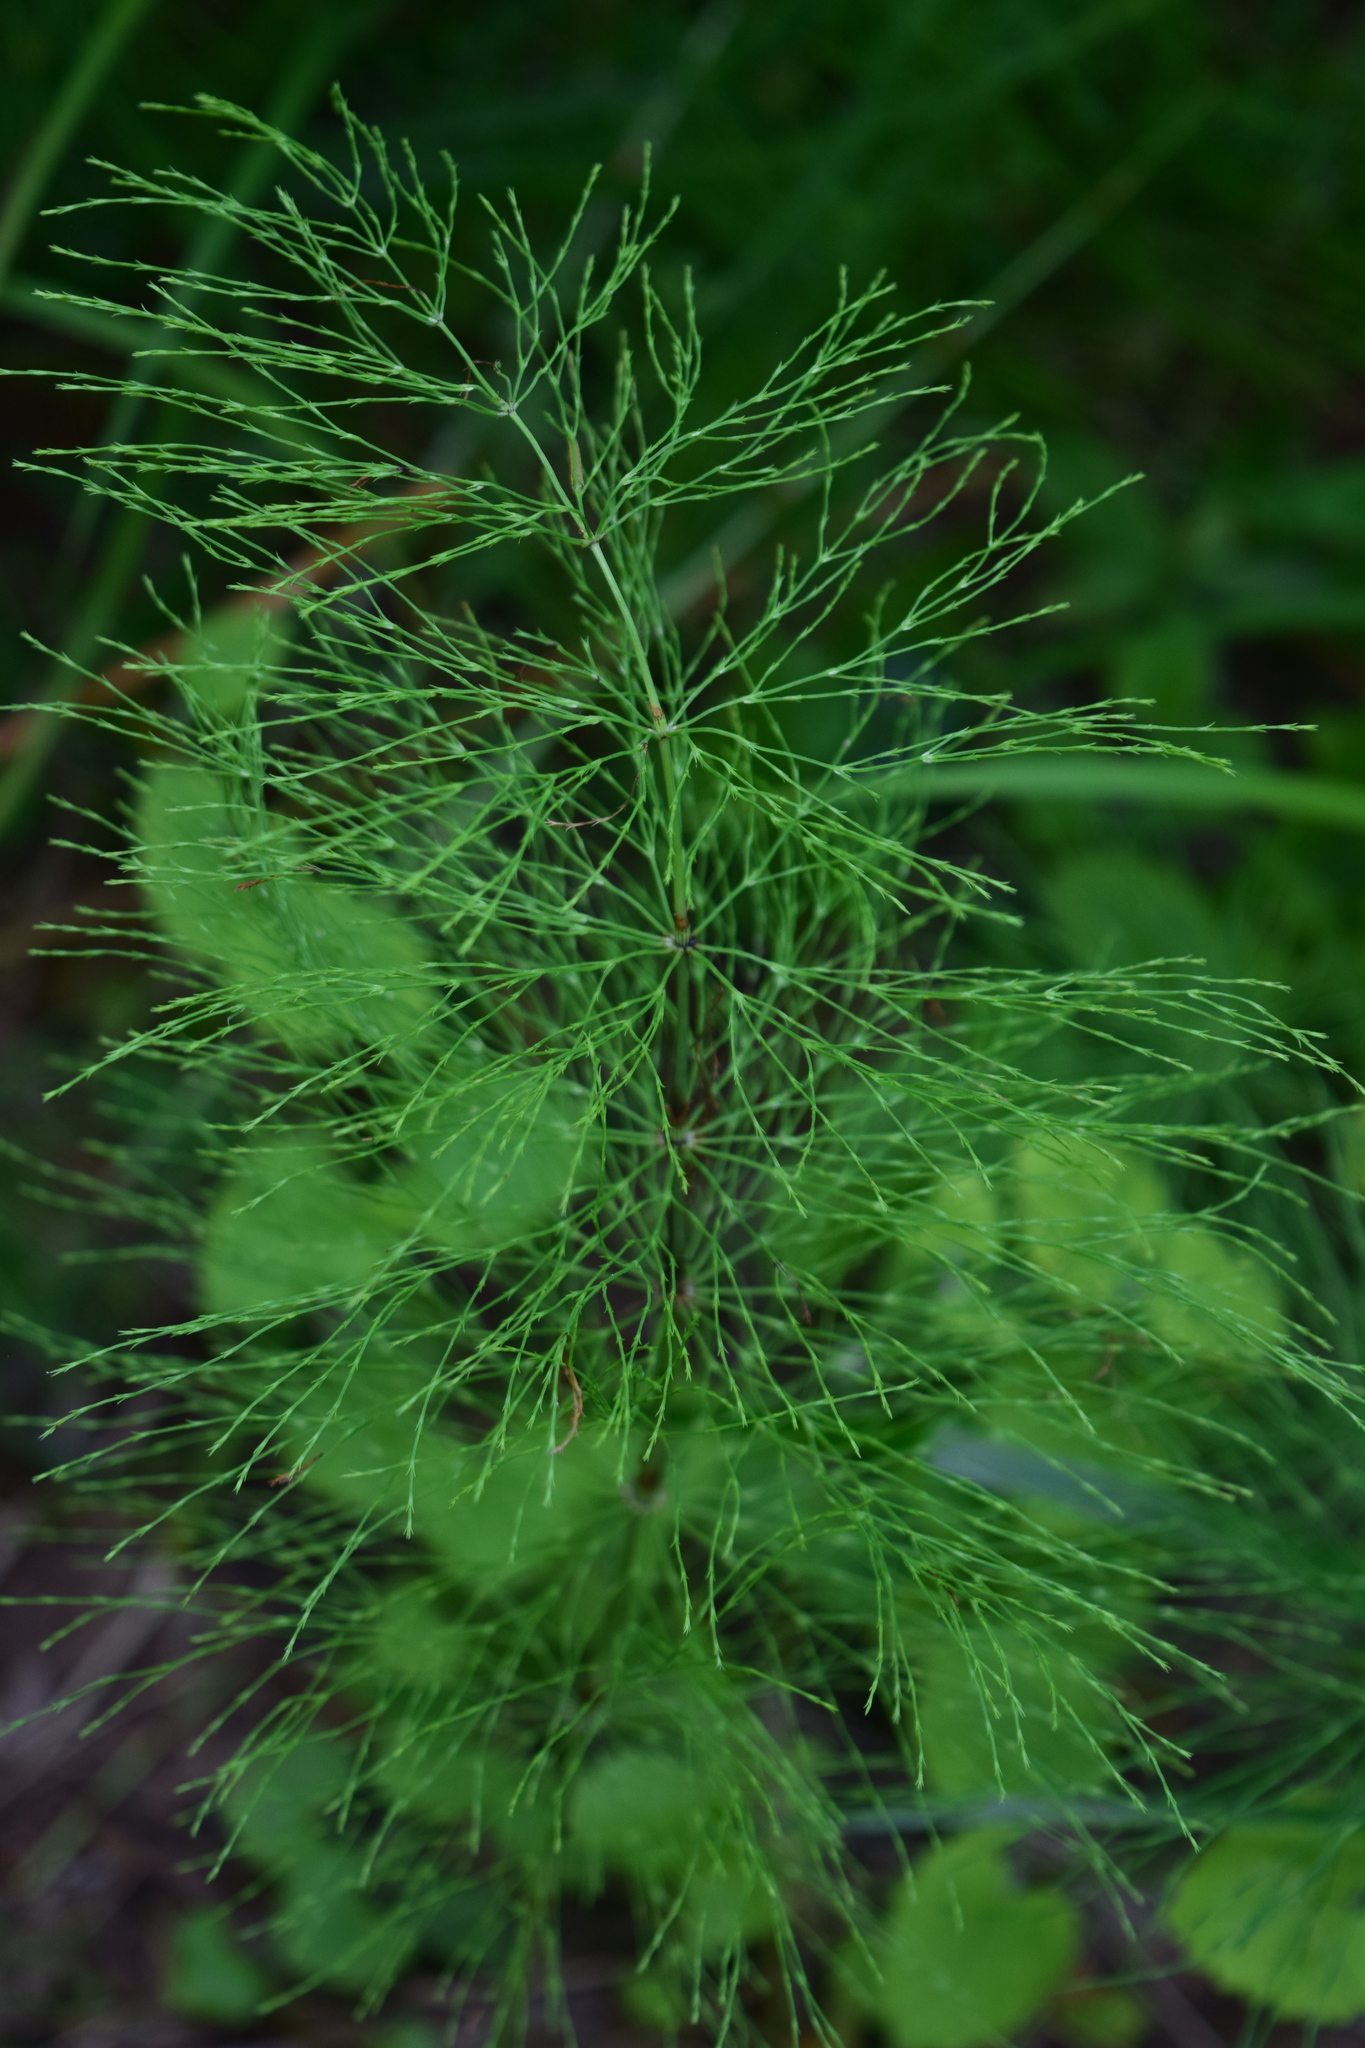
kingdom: Plantae
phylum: Tracheophyta
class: Polypodiopsida
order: Equisetales
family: Equisetaceae
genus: Equisetum
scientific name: Equisetum sylvaticum
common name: Wood horsetail
